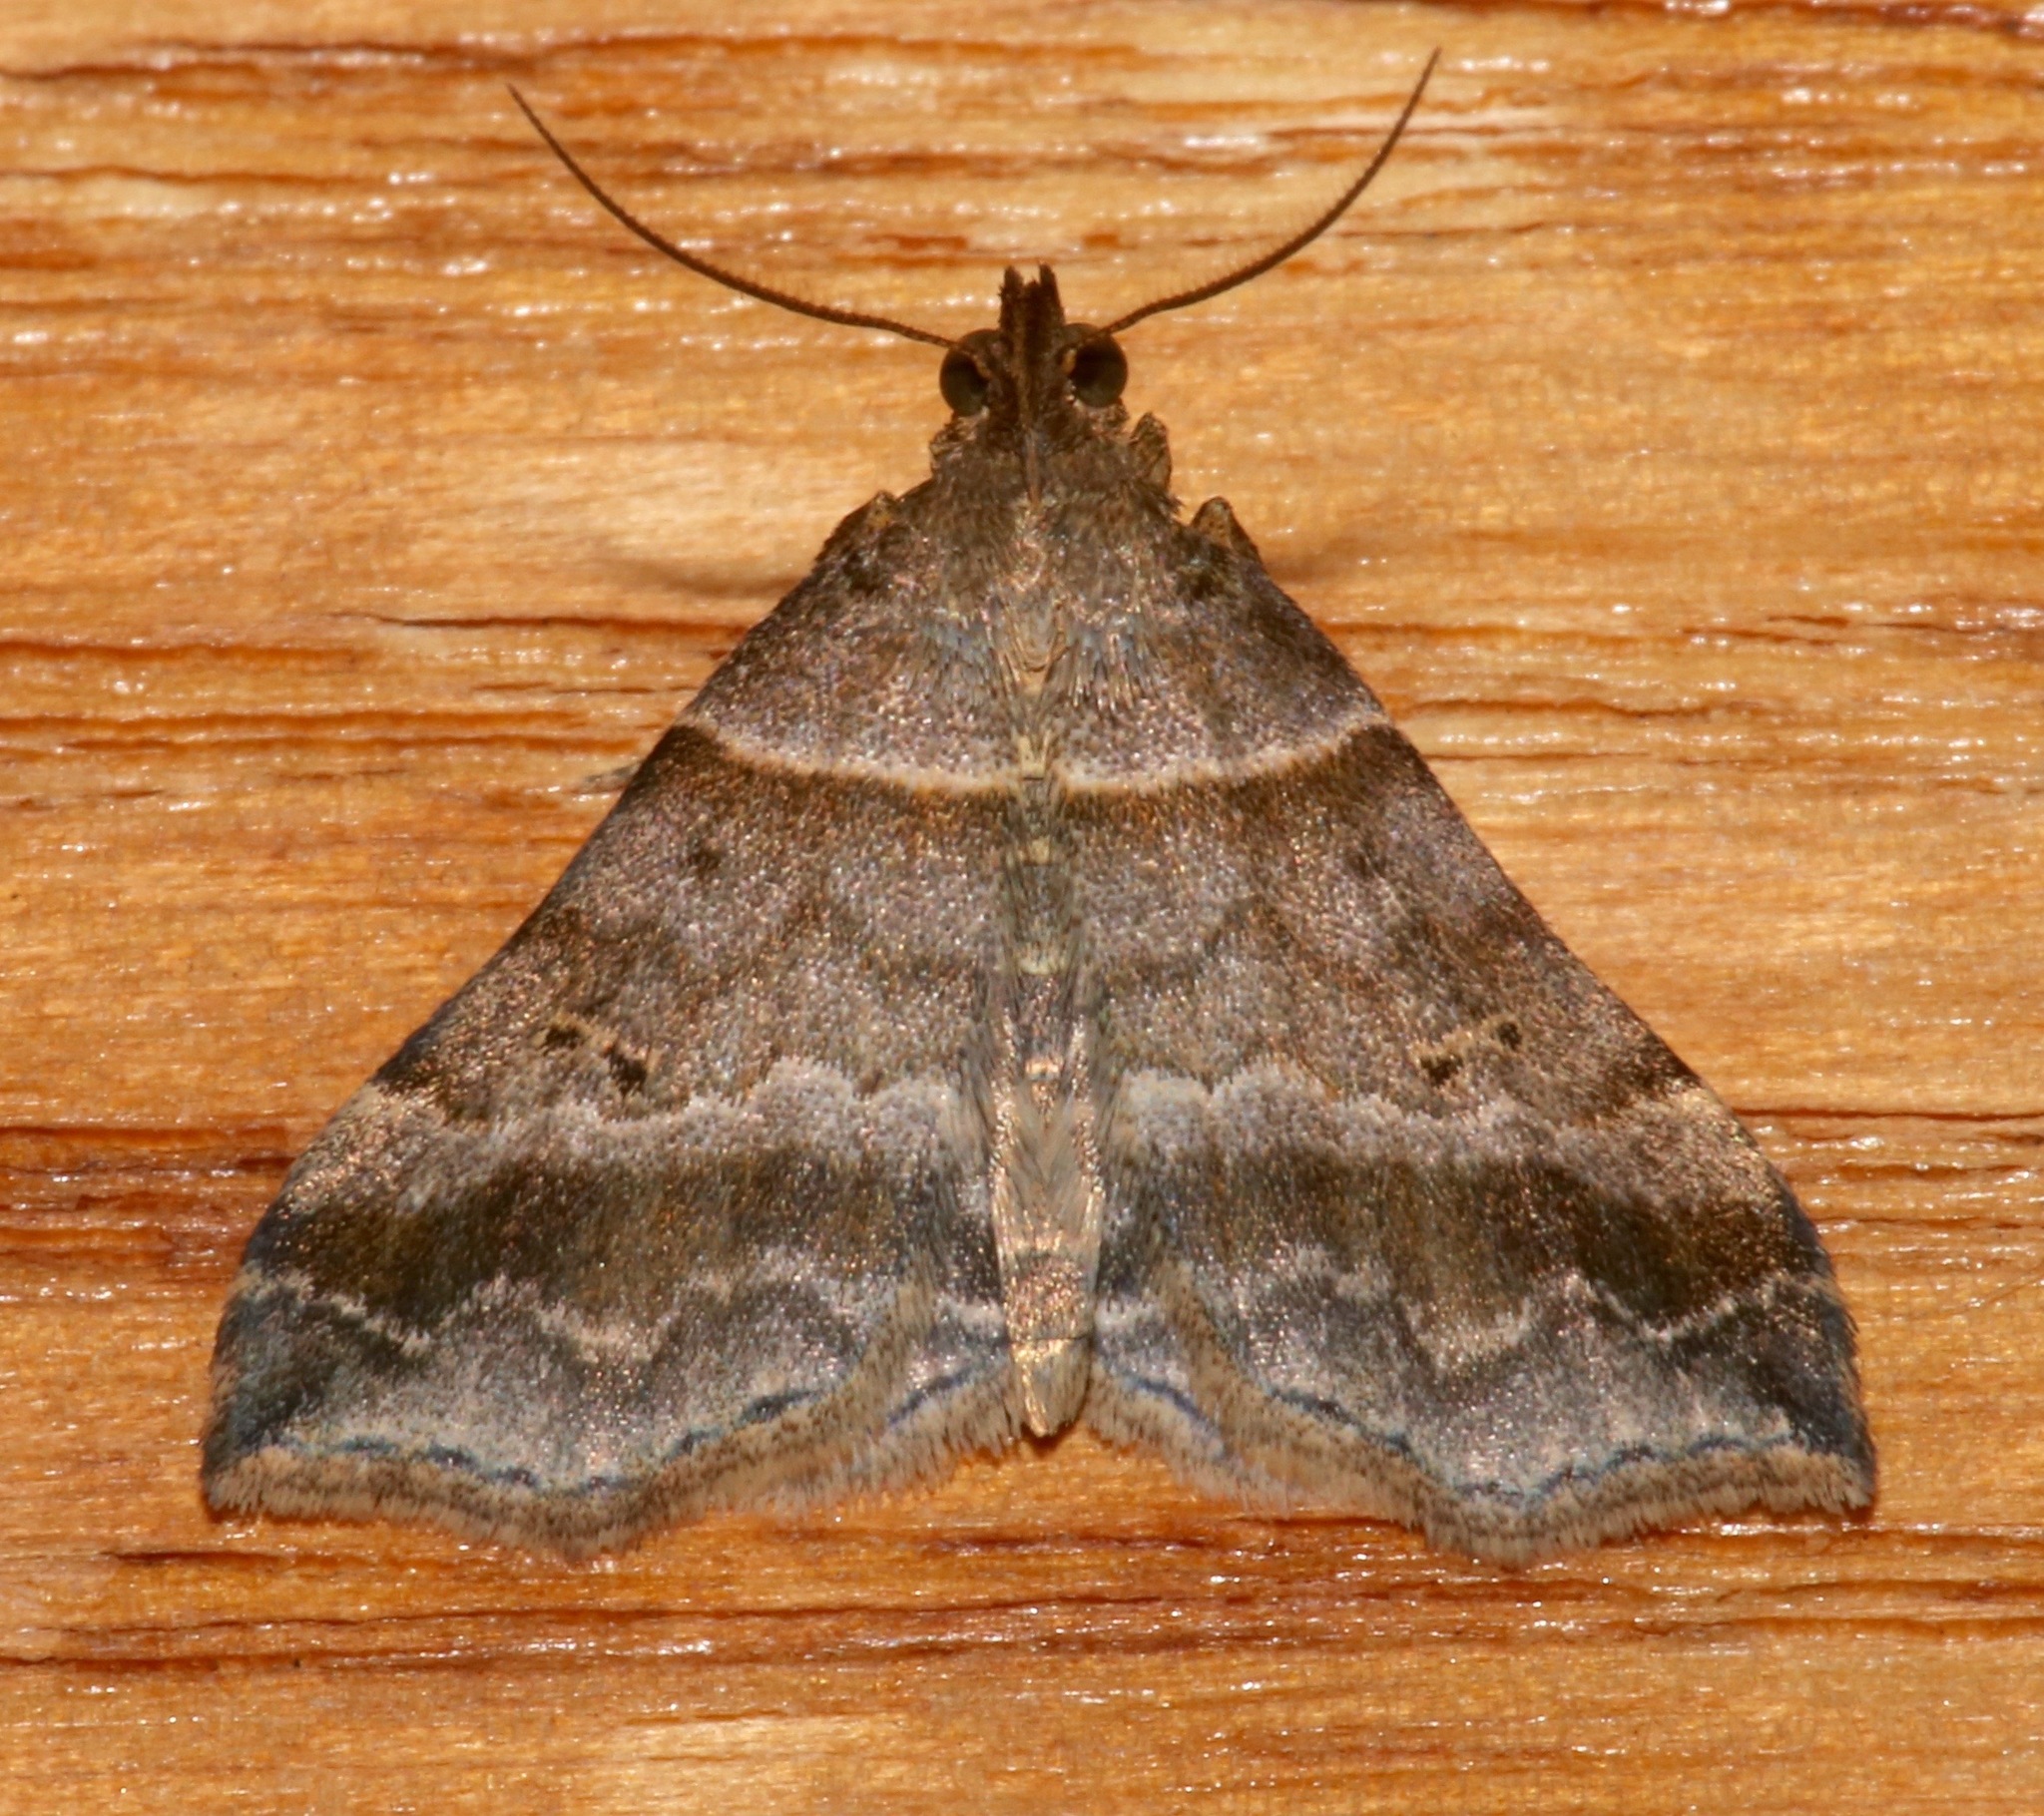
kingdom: Animalia
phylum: Arthropoda
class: Insecta
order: Lepidoptera
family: Erebidae
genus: Phaeolita
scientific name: Phaeolita pyramusalis
